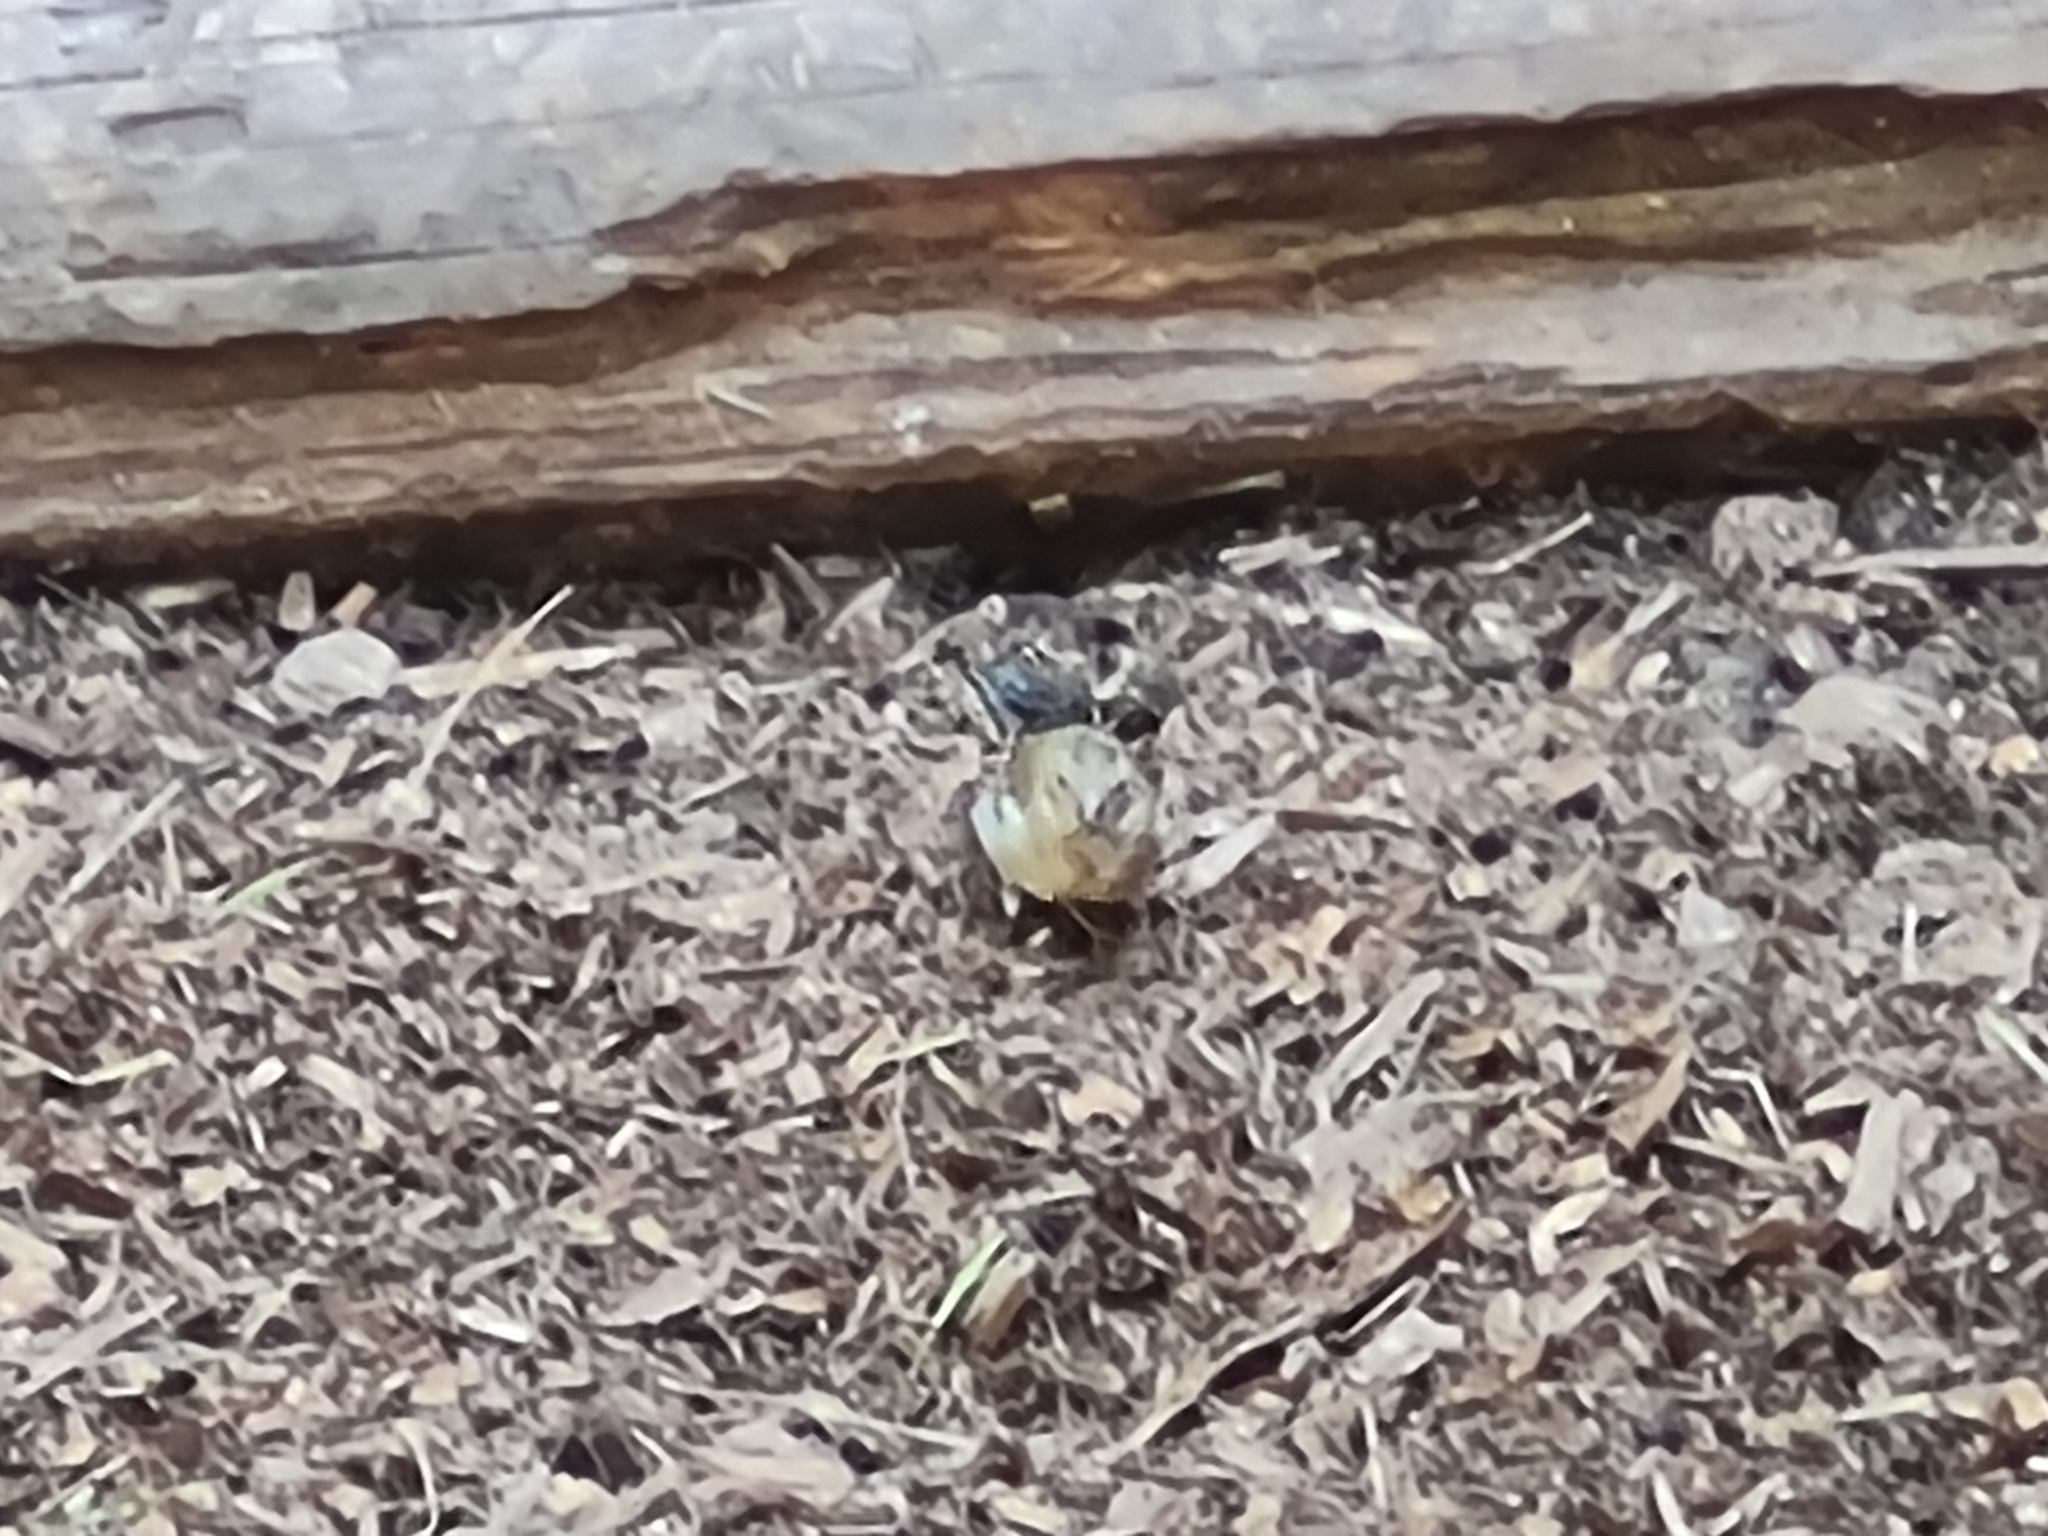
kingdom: Animalia
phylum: Chordata
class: Aves
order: Passeriformes
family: Fringillidae
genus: Fringilla
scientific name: Fringilla coelebs
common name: Common chaffinch
